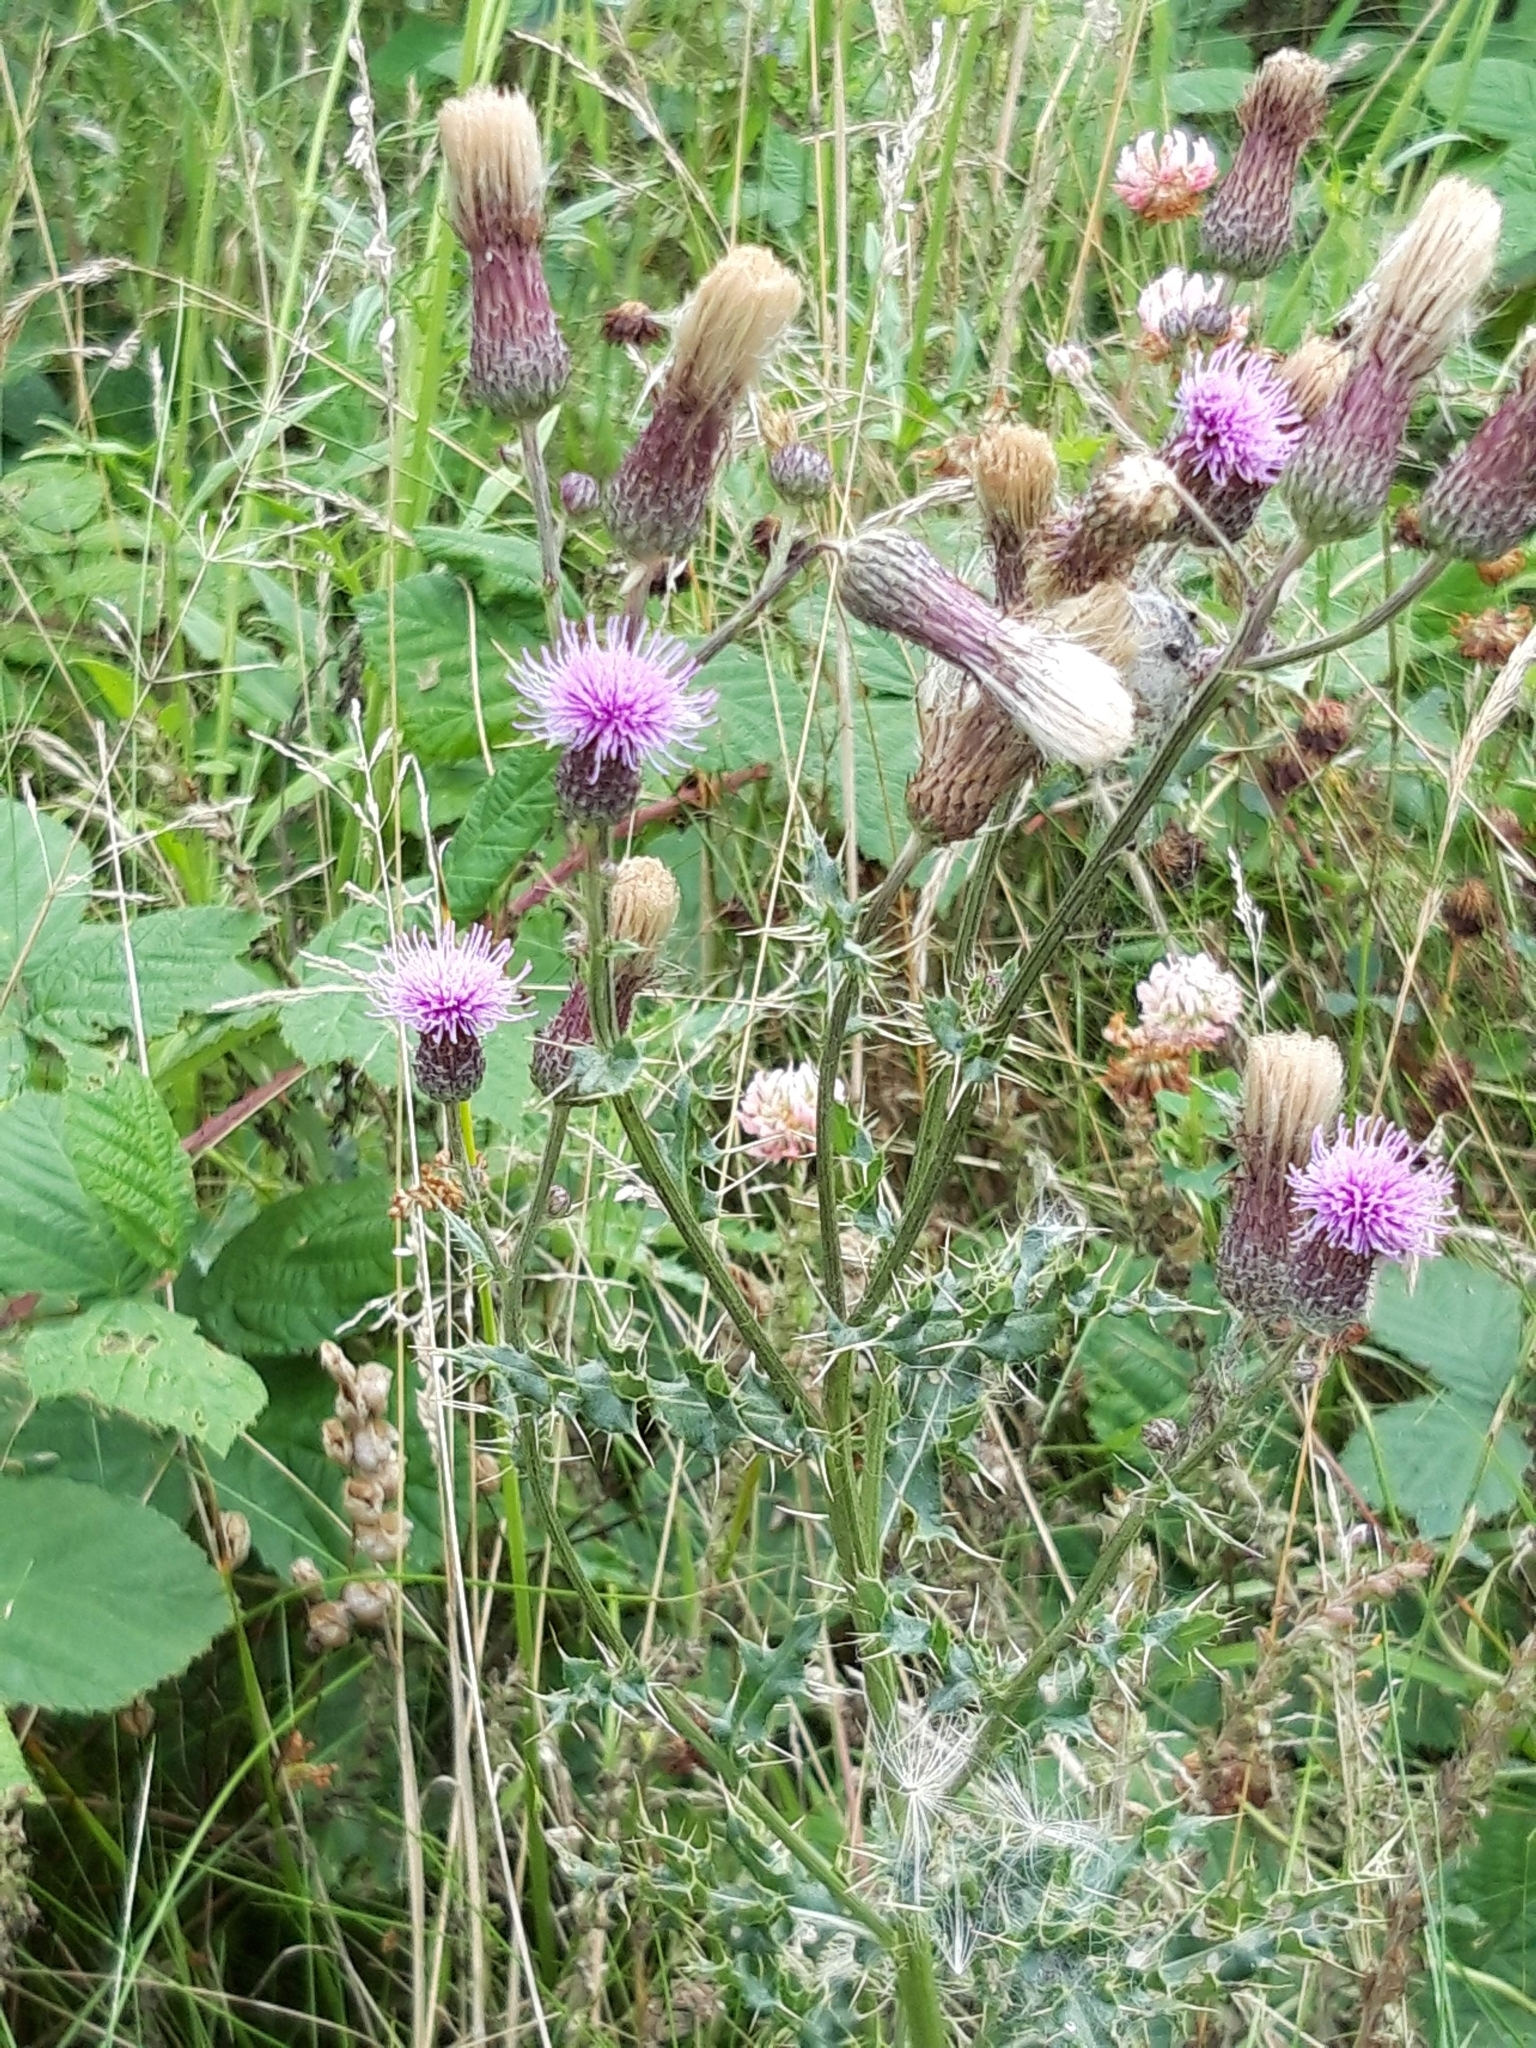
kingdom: Plantae
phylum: Tracheophyta
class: Magnoliopsida
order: Asterales
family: Asteraceae
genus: Cirsium
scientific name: Cirsium arvense
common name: Creeping thistle
